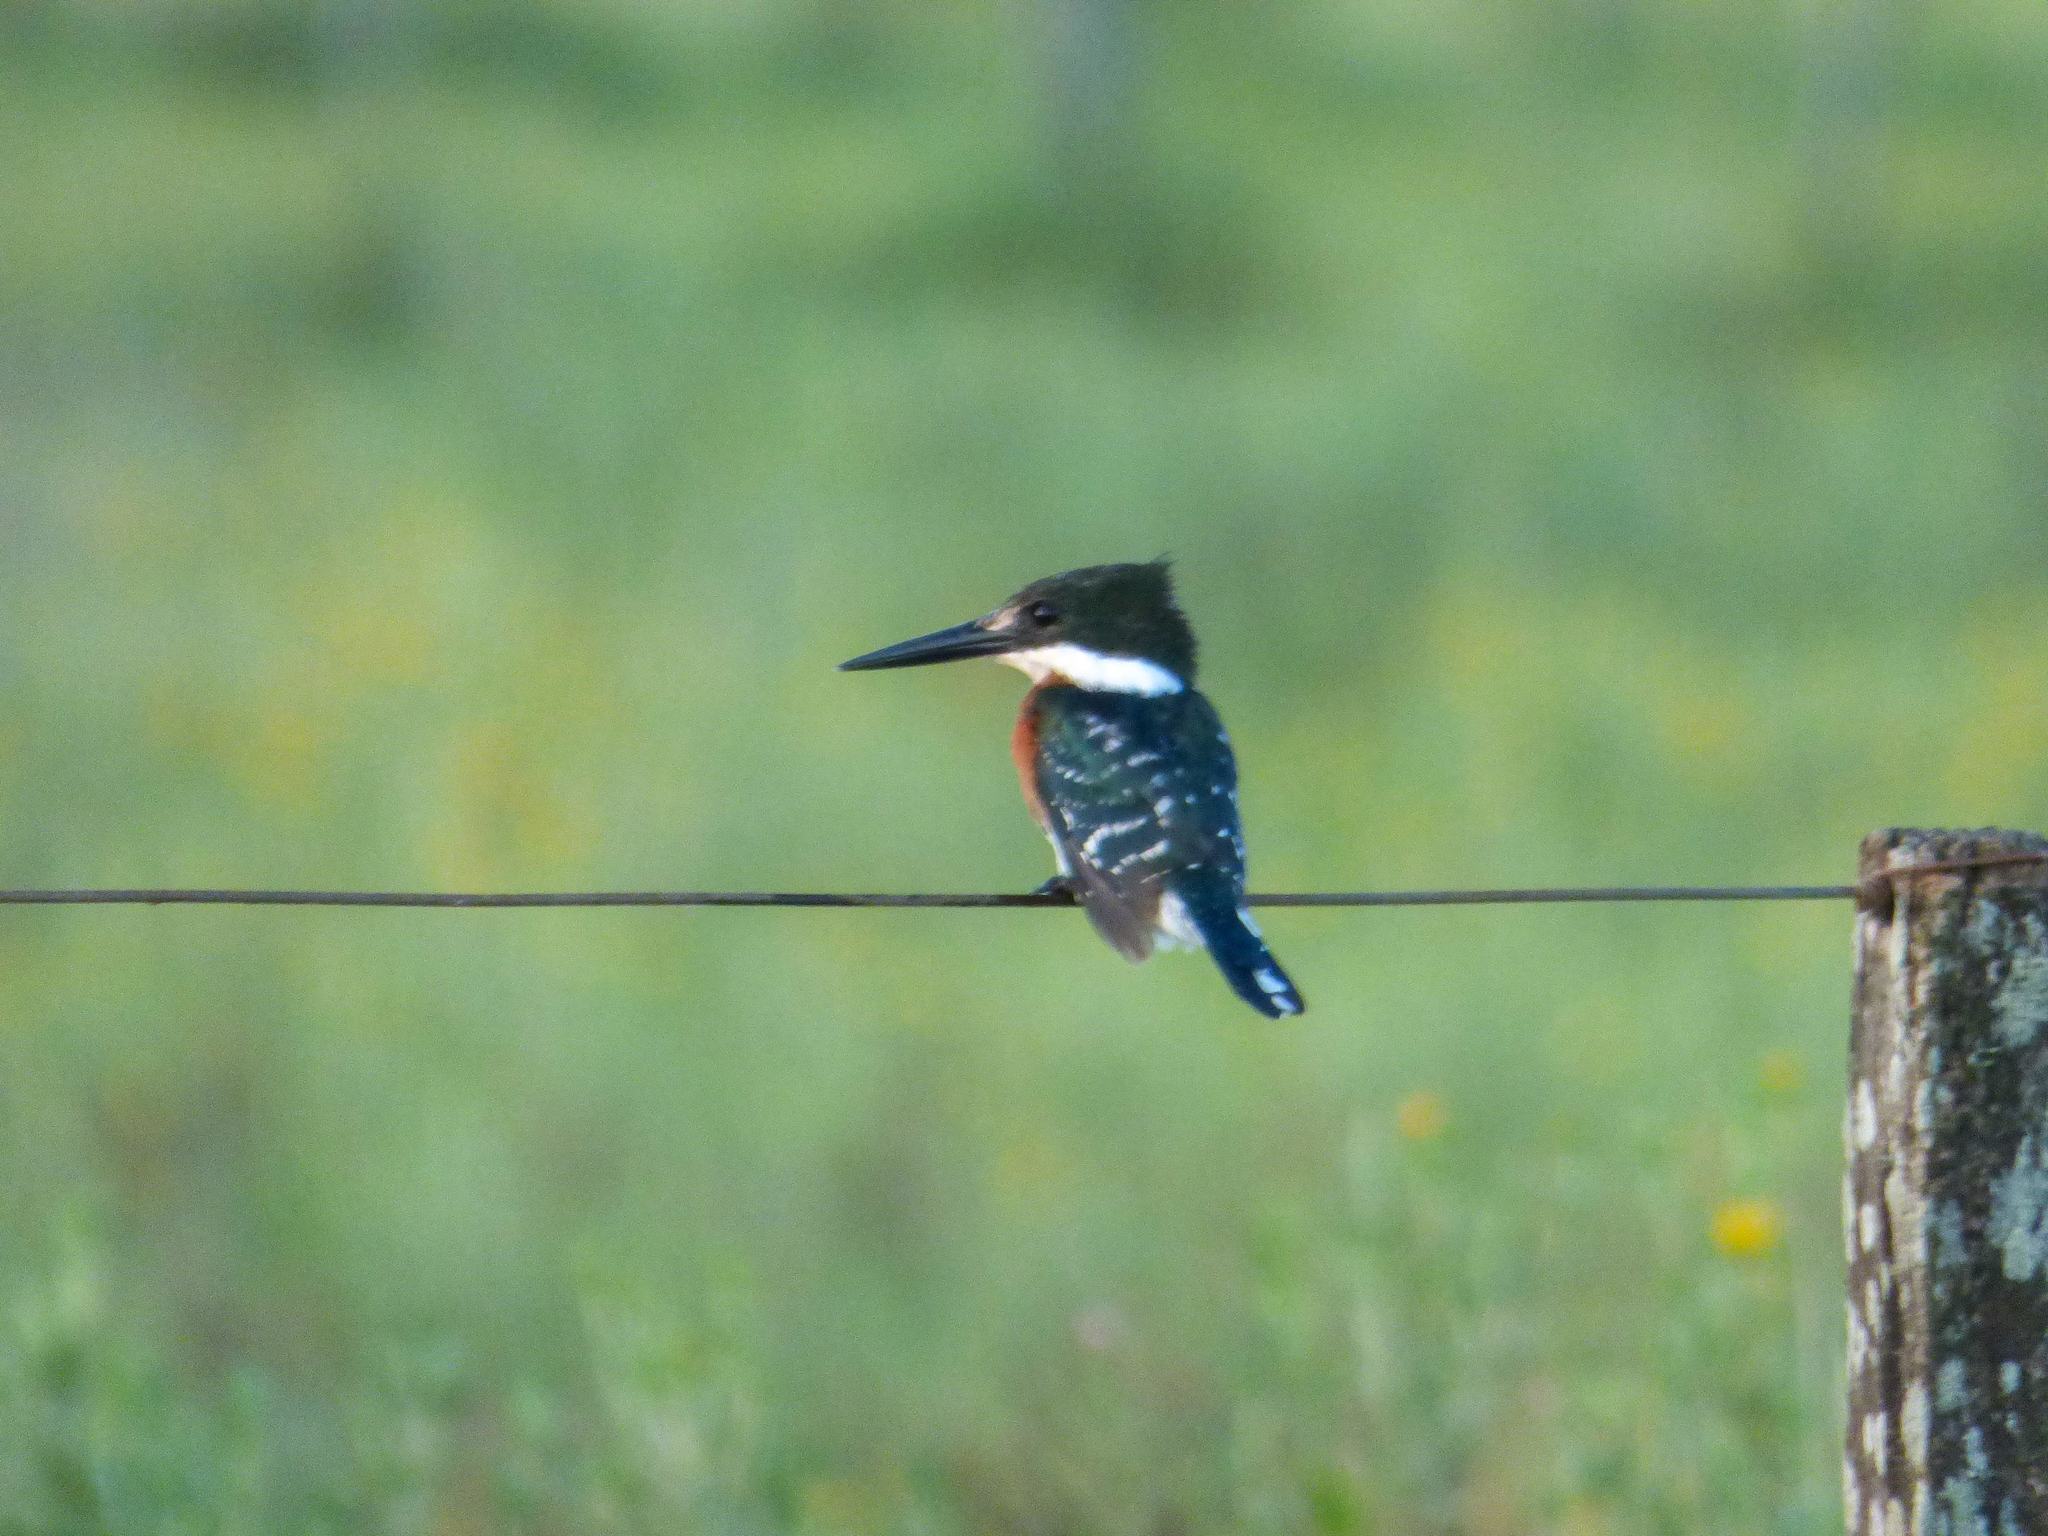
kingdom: Animalia
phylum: Chordata
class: Aves
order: Coraciiformes
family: Alcedinidae
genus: Chloroceryle
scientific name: Chloroceryle americana
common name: Green kingfisher
